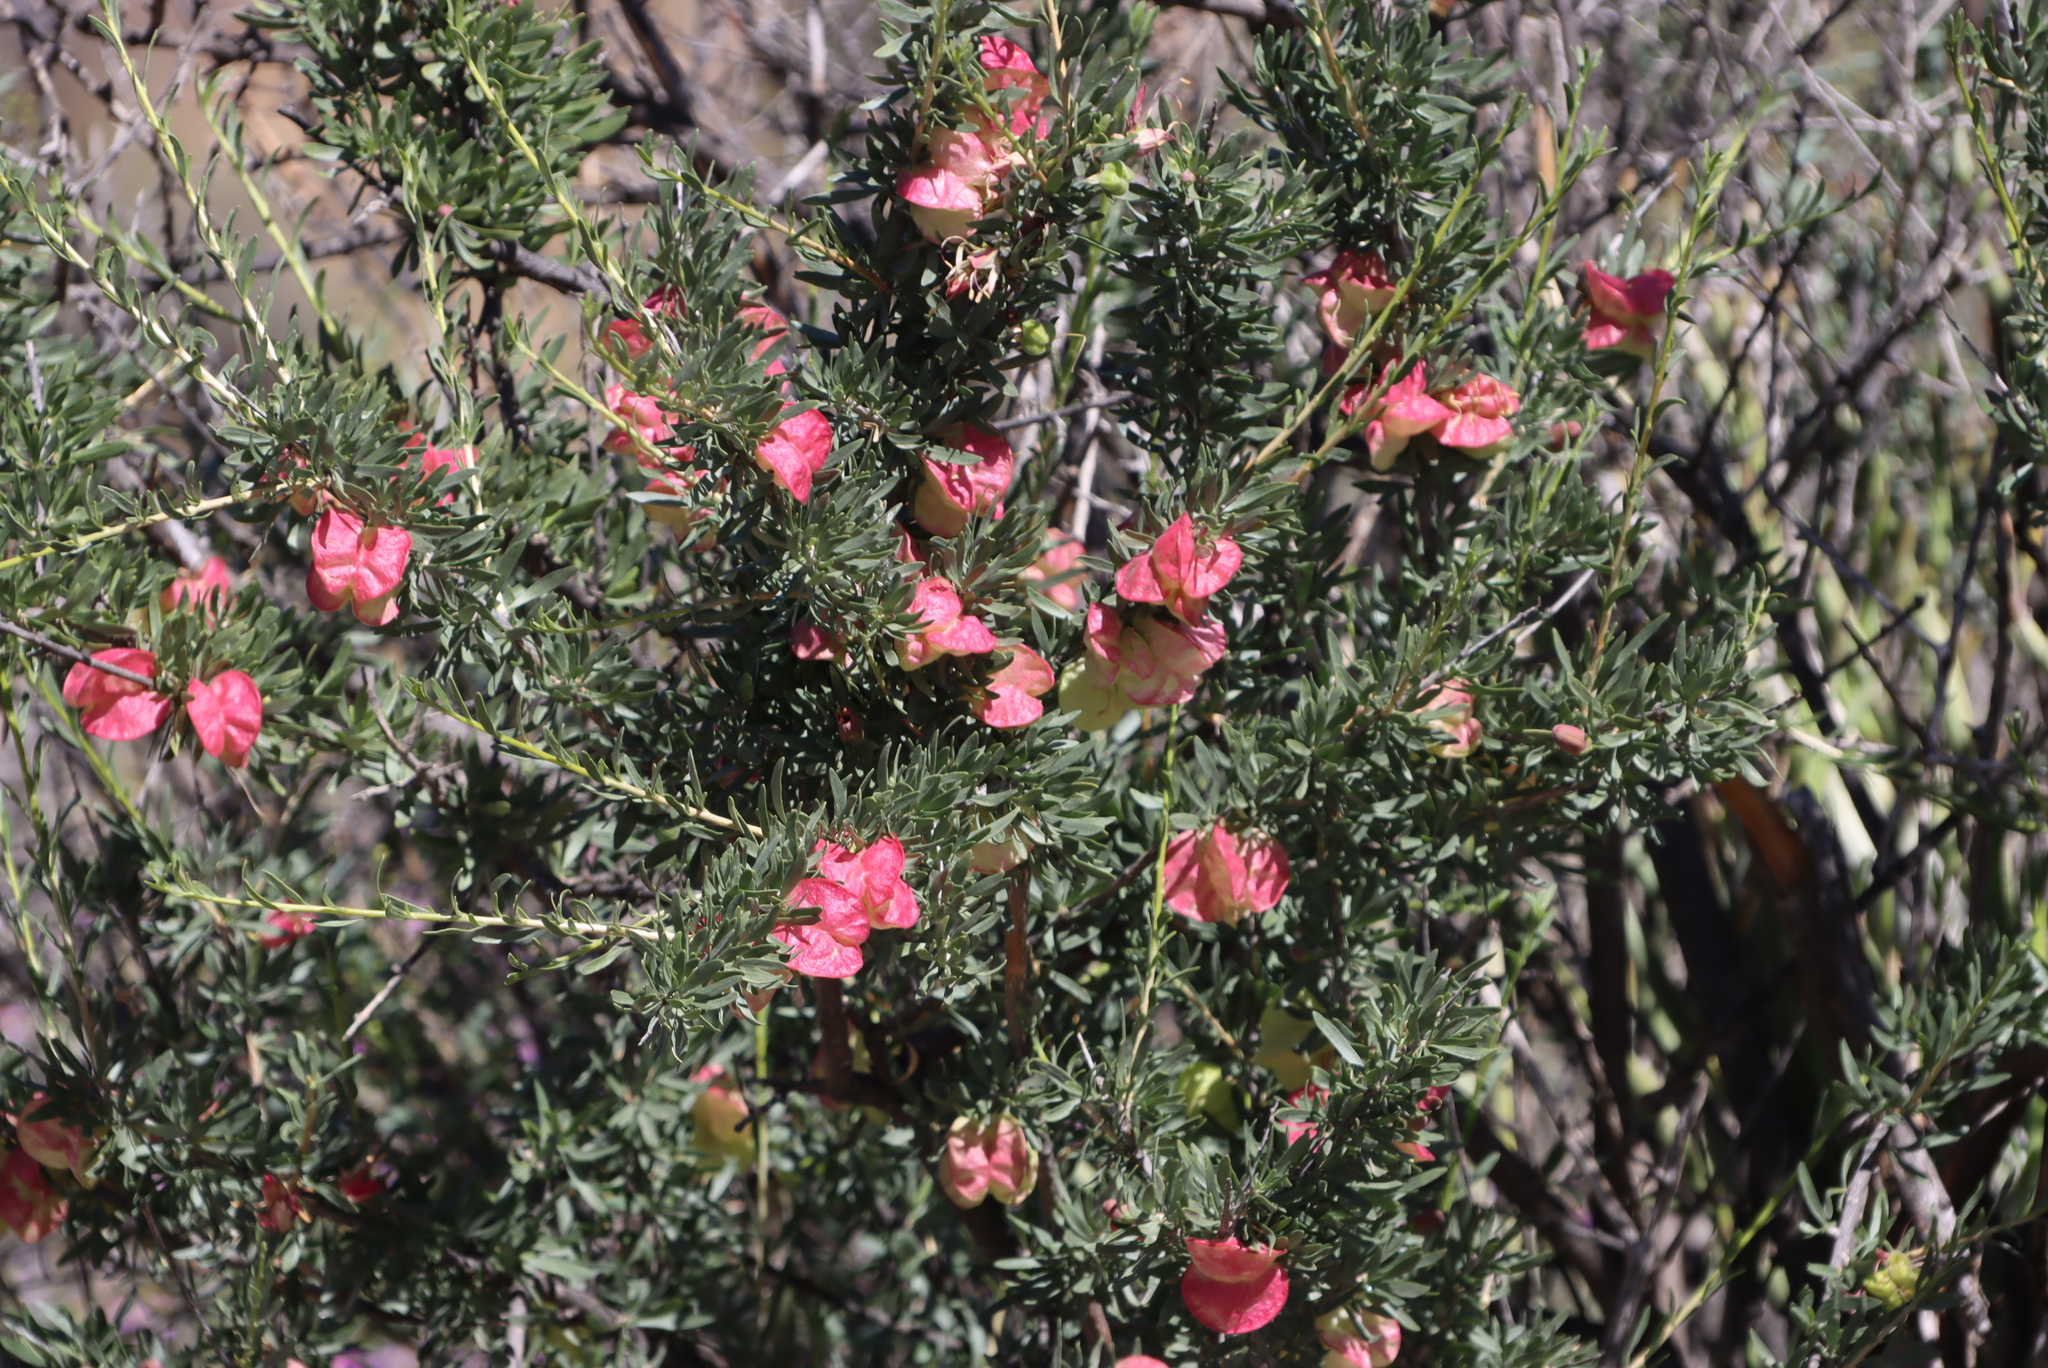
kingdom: Plantae
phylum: Tracheophyta
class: Magnoliopsida
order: Sapindales
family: Meliaceae
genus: Nymania
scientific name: Nymania capensis
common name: Chinese lantern tree
